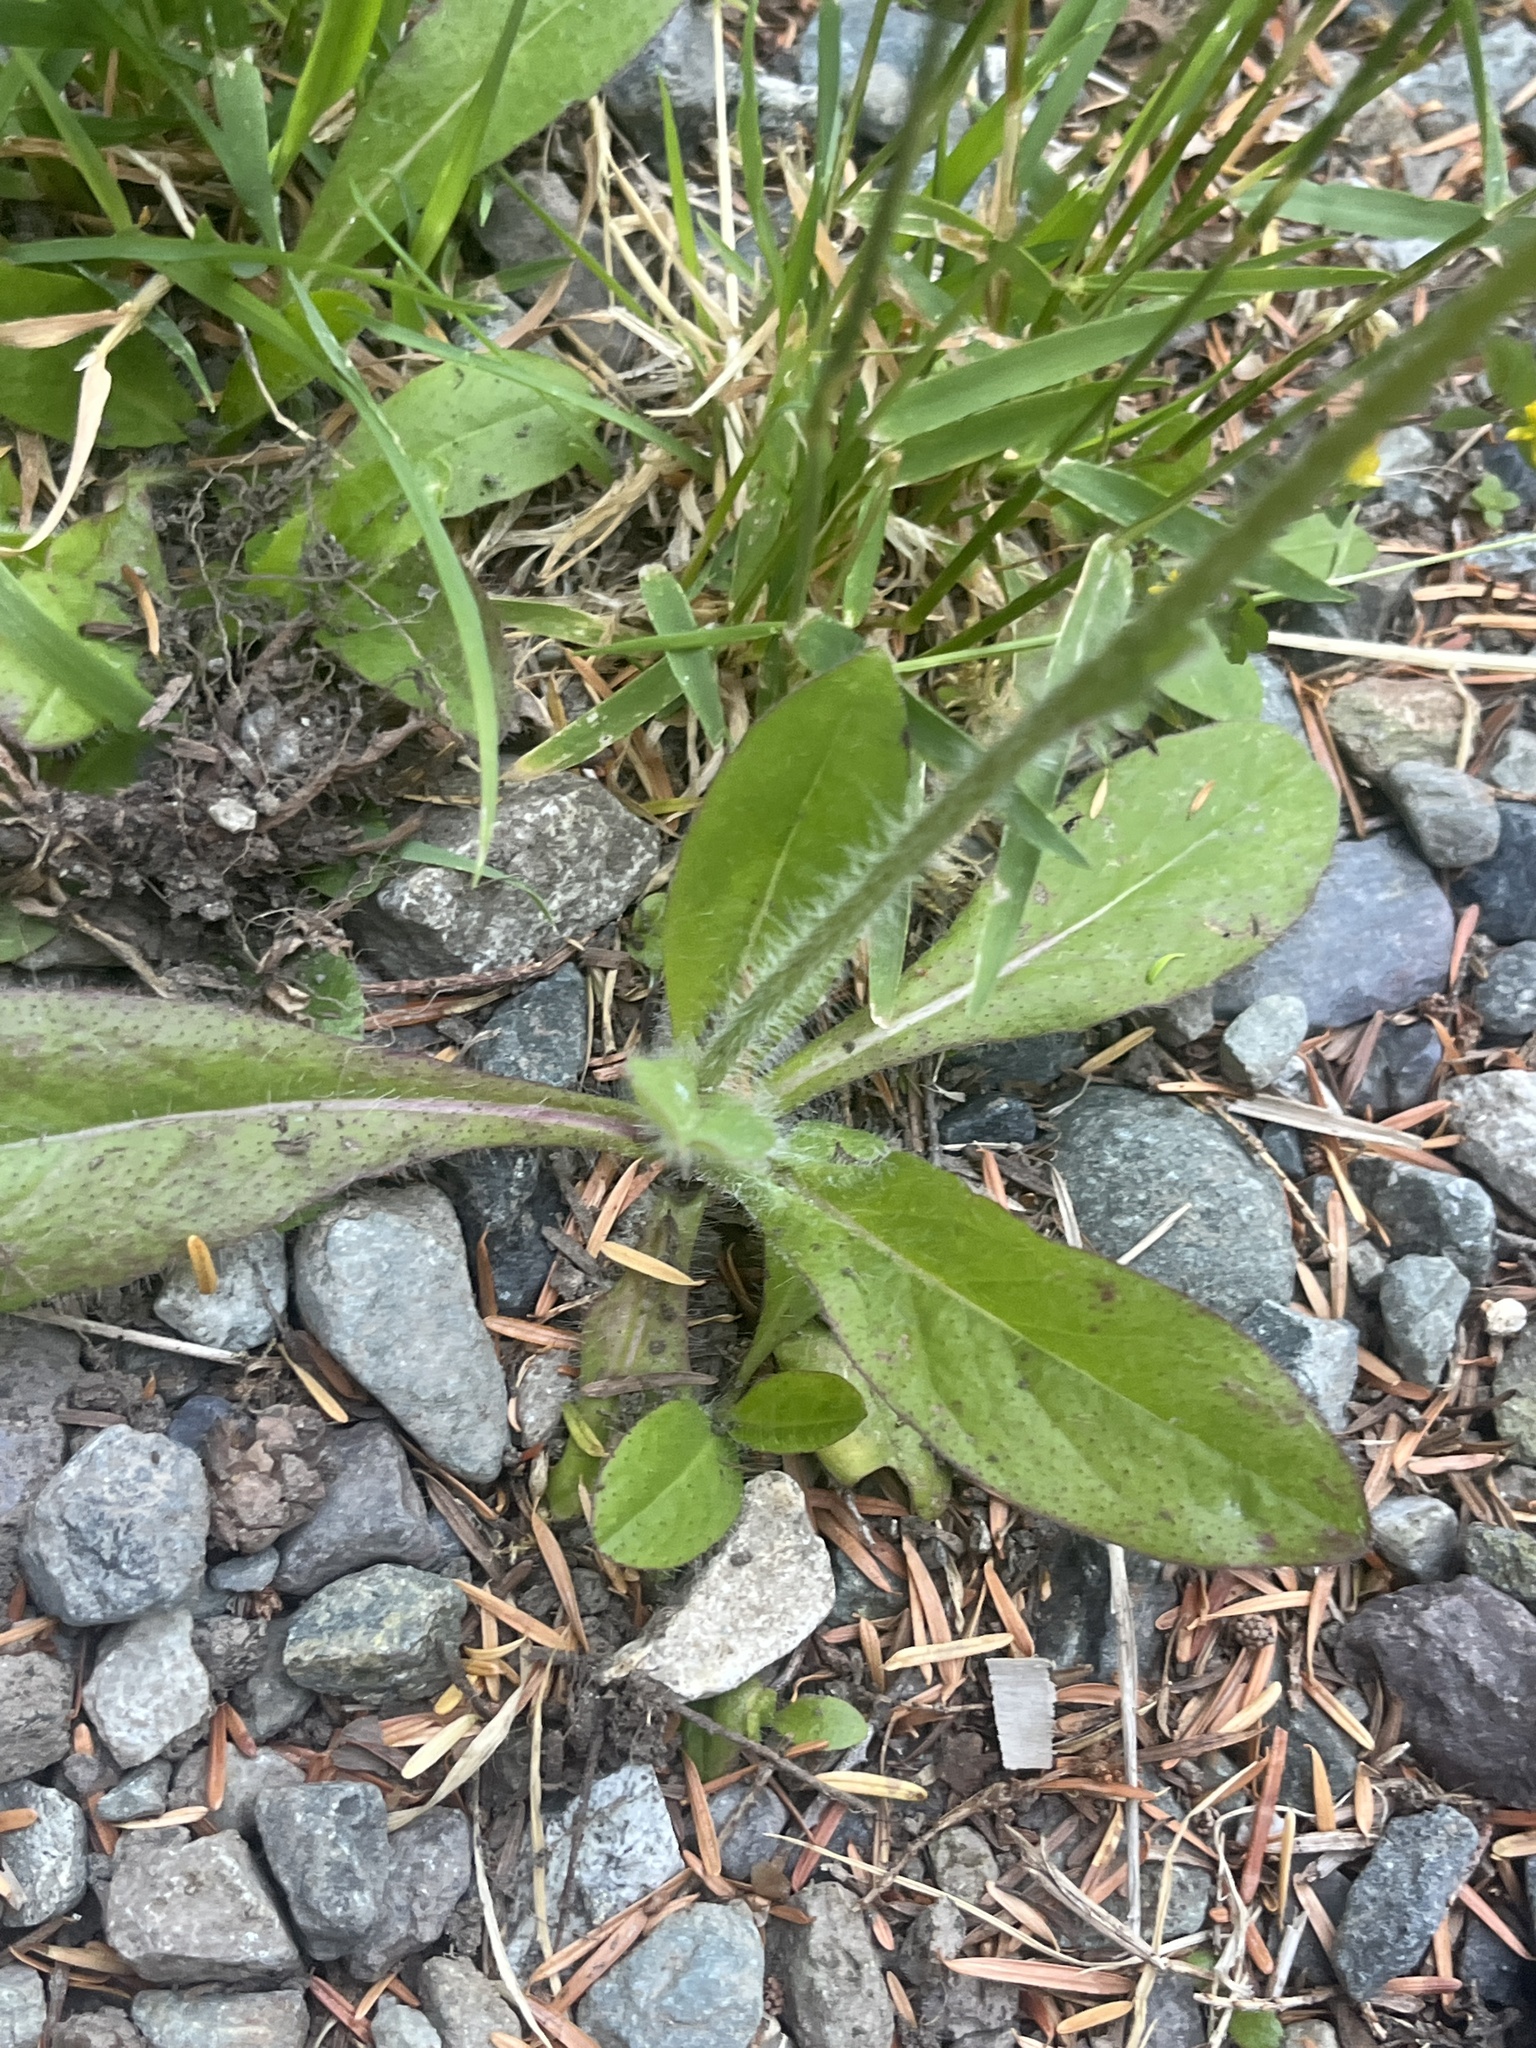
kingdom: Plantae
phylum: Tracheophyta
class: Magnoliopsida
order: Asterales
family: Asteraceae
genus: Pilosella
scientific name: Pilosella aurantiaca
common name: Fox-and-cubs
